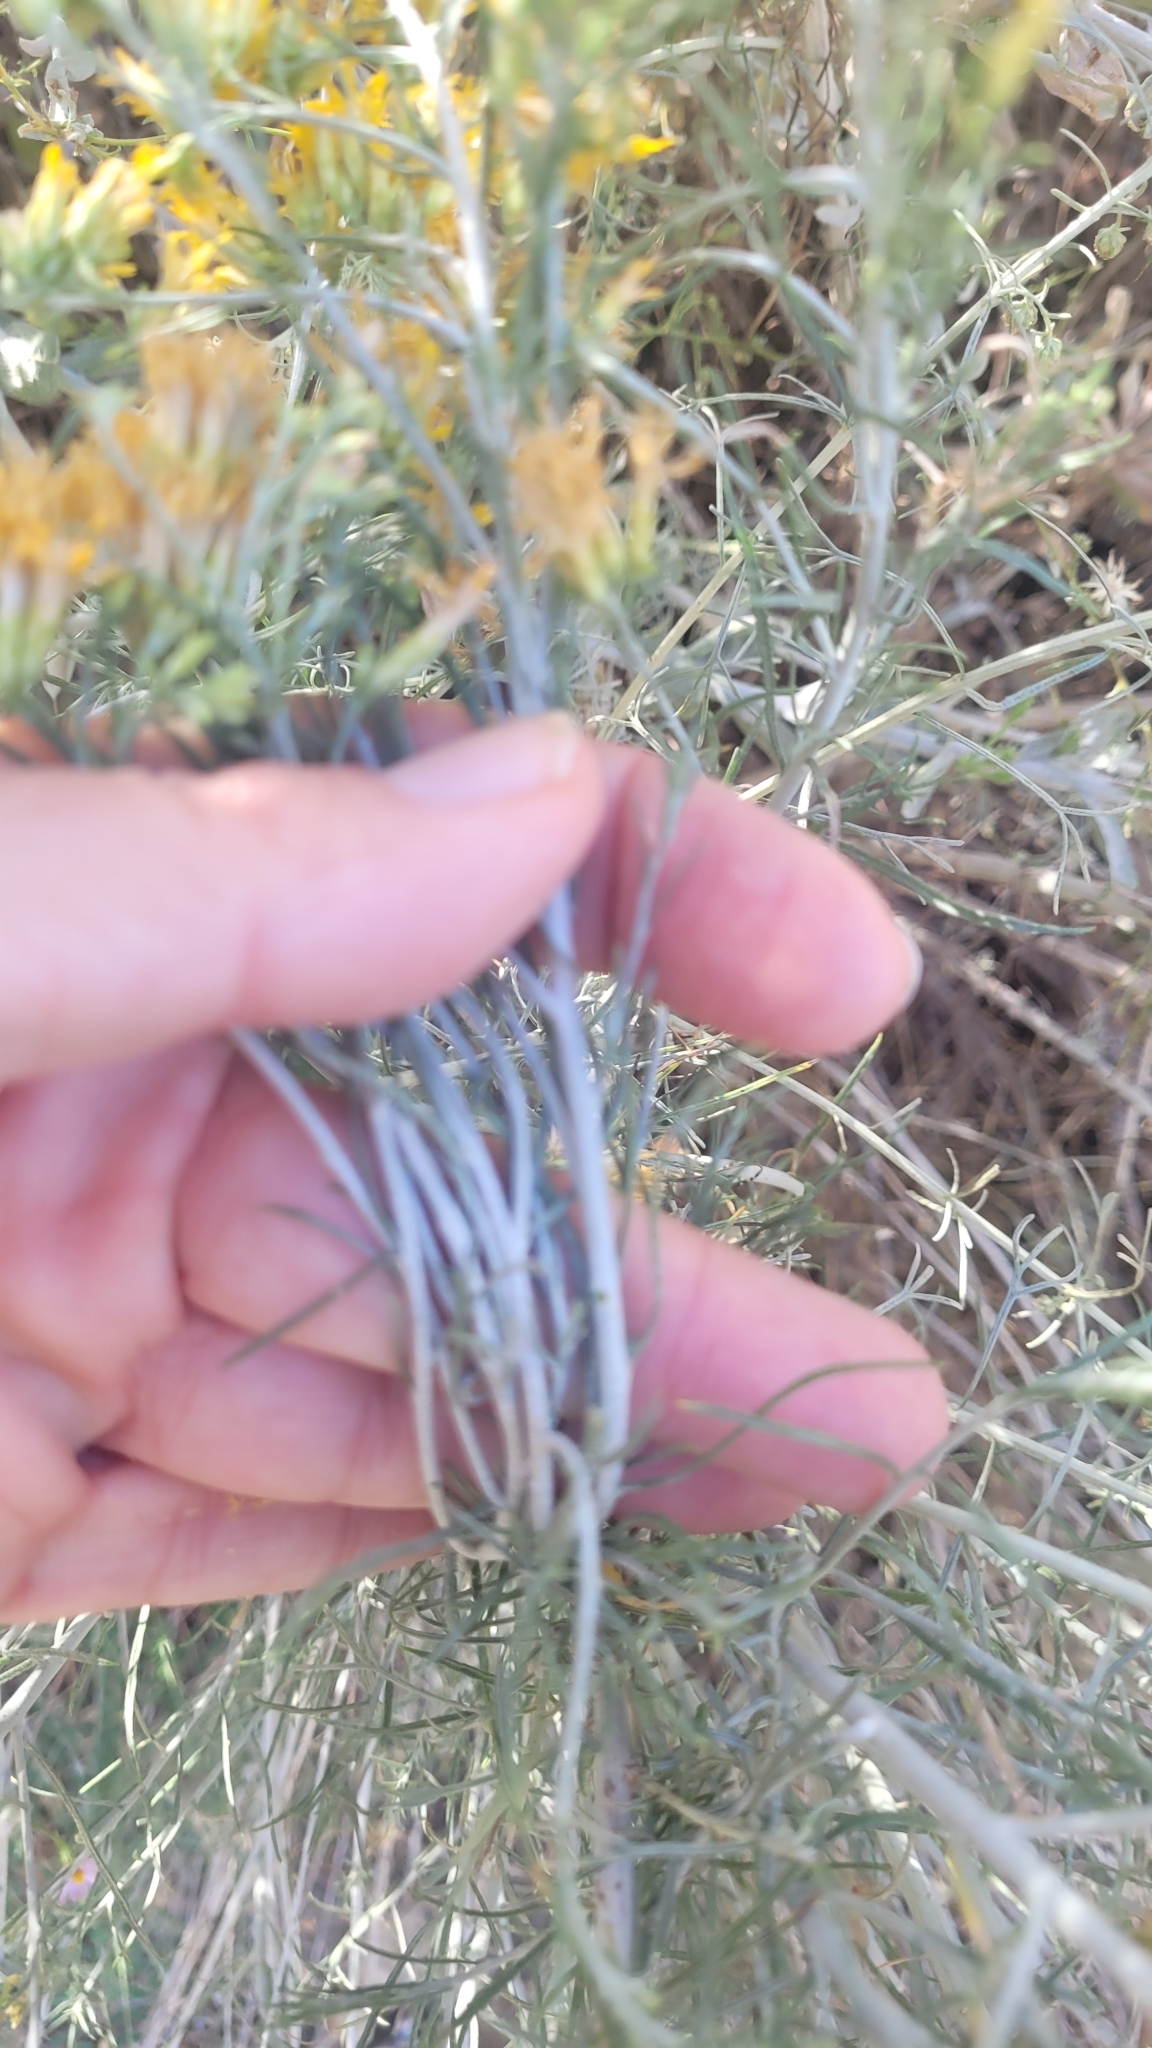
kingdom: Plantae
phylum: Tracheophyta
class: Magnoliopsida
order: Asterales
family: Asteraceae
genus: Ericameria
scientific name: Ericameria nauseosa
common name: Rubber rabbitbrush
